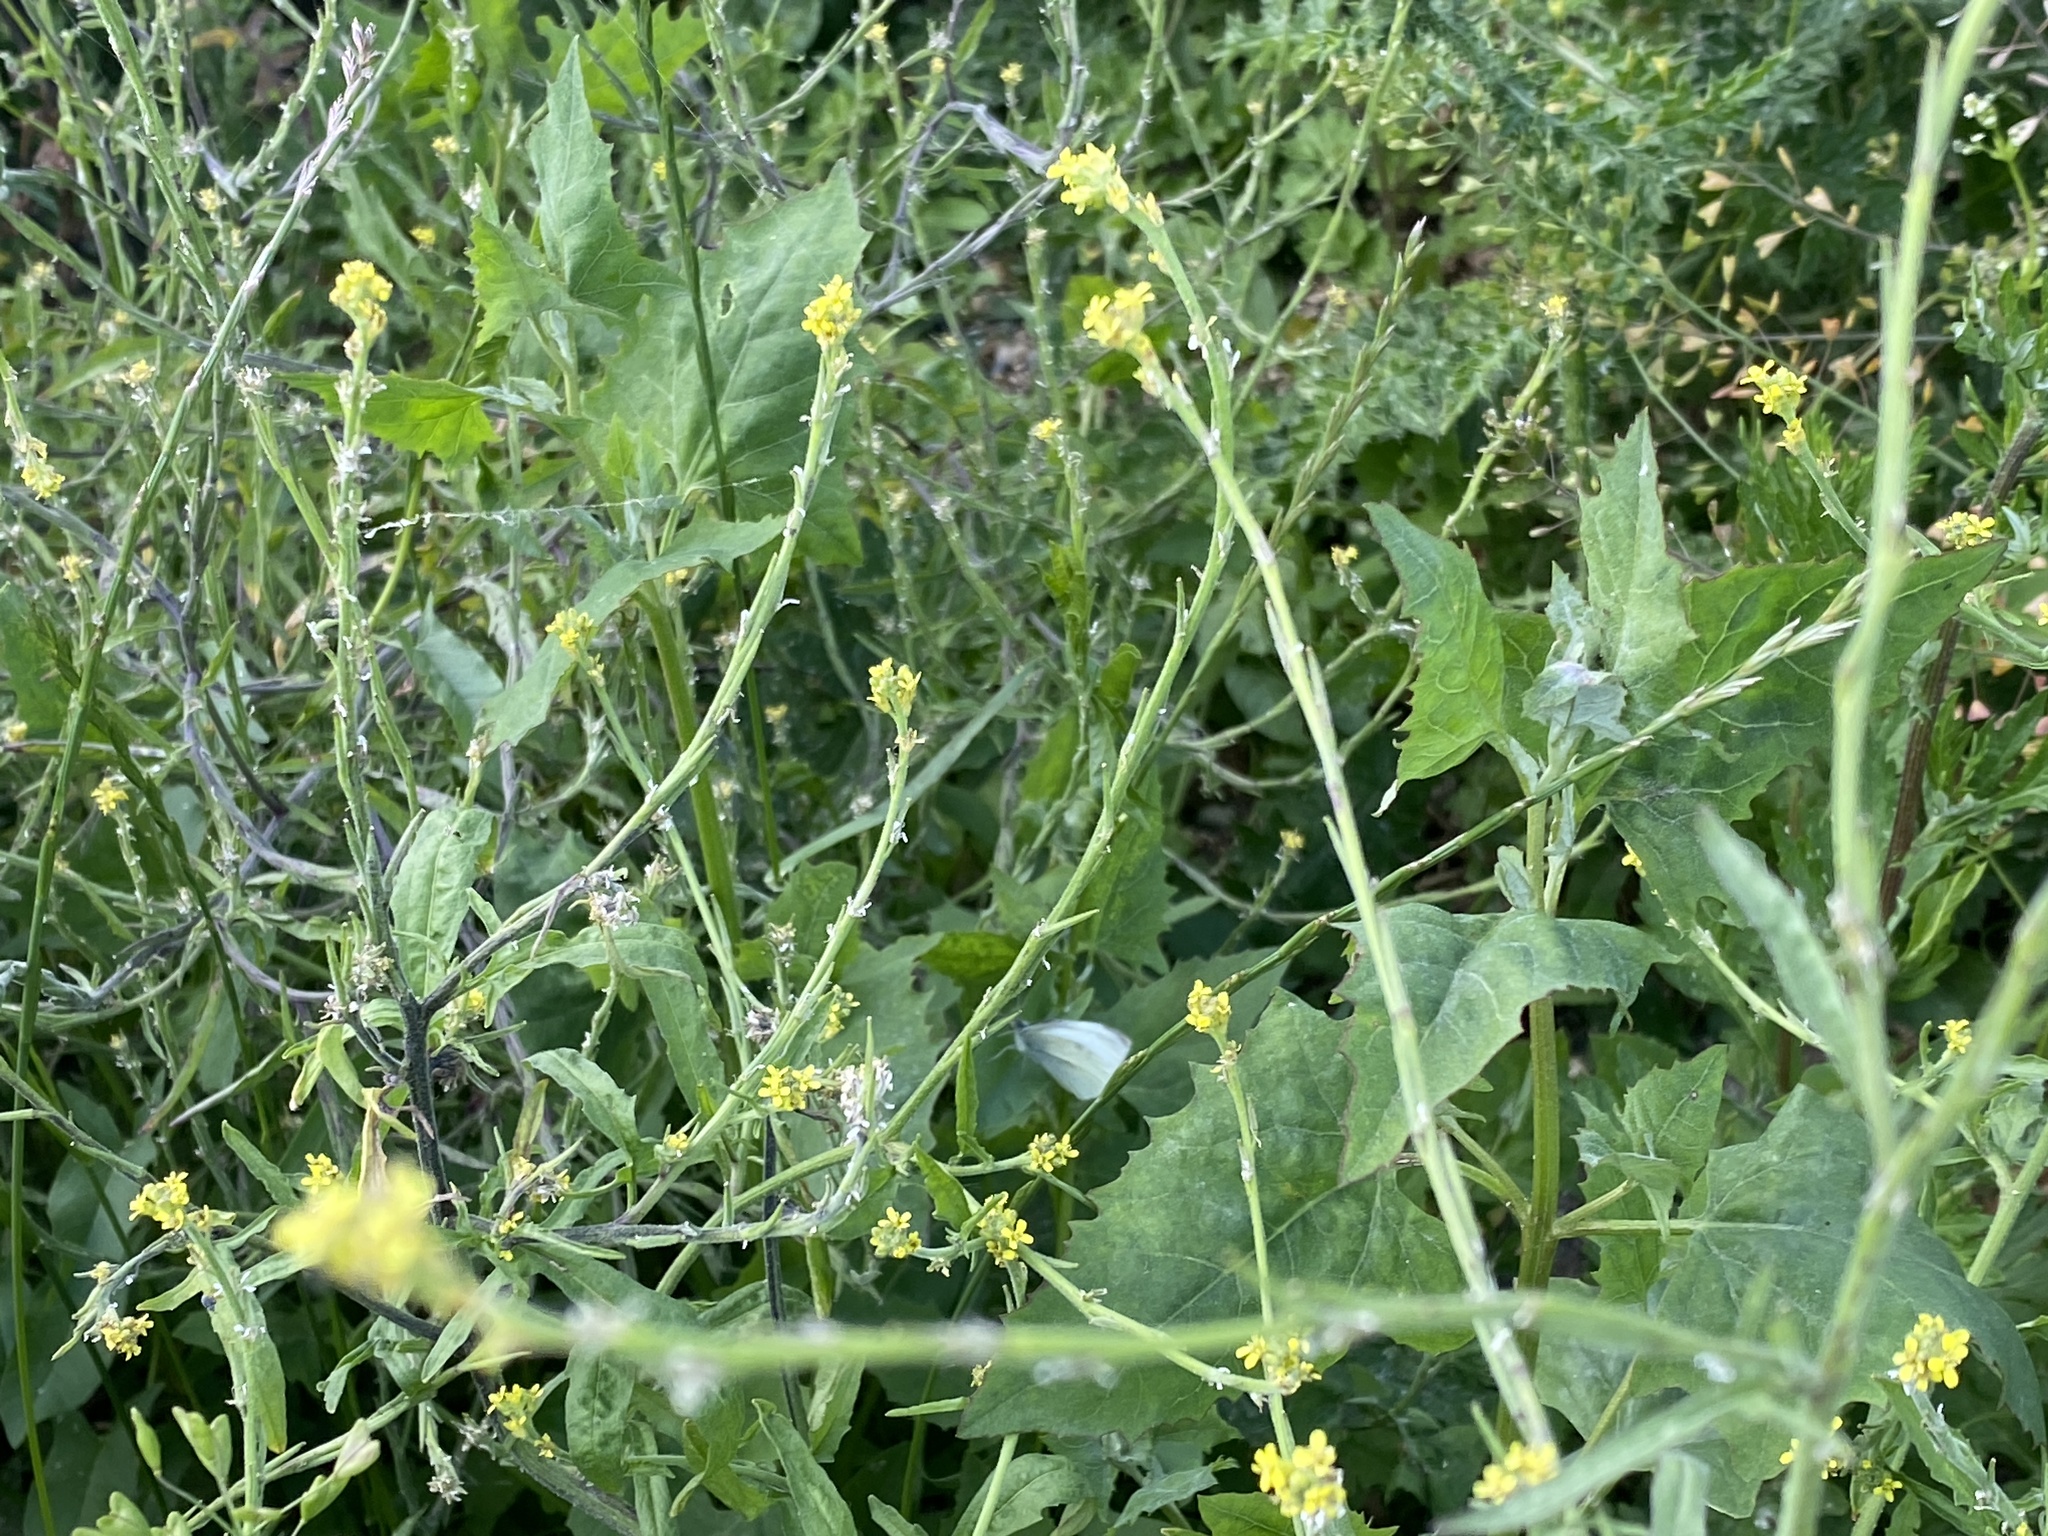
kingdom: Animalia
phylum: Arthropoda
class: Insecta
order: Lepidoptera
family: Pieridae
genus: Pieris
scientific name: Pieris rapae
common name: Small white
